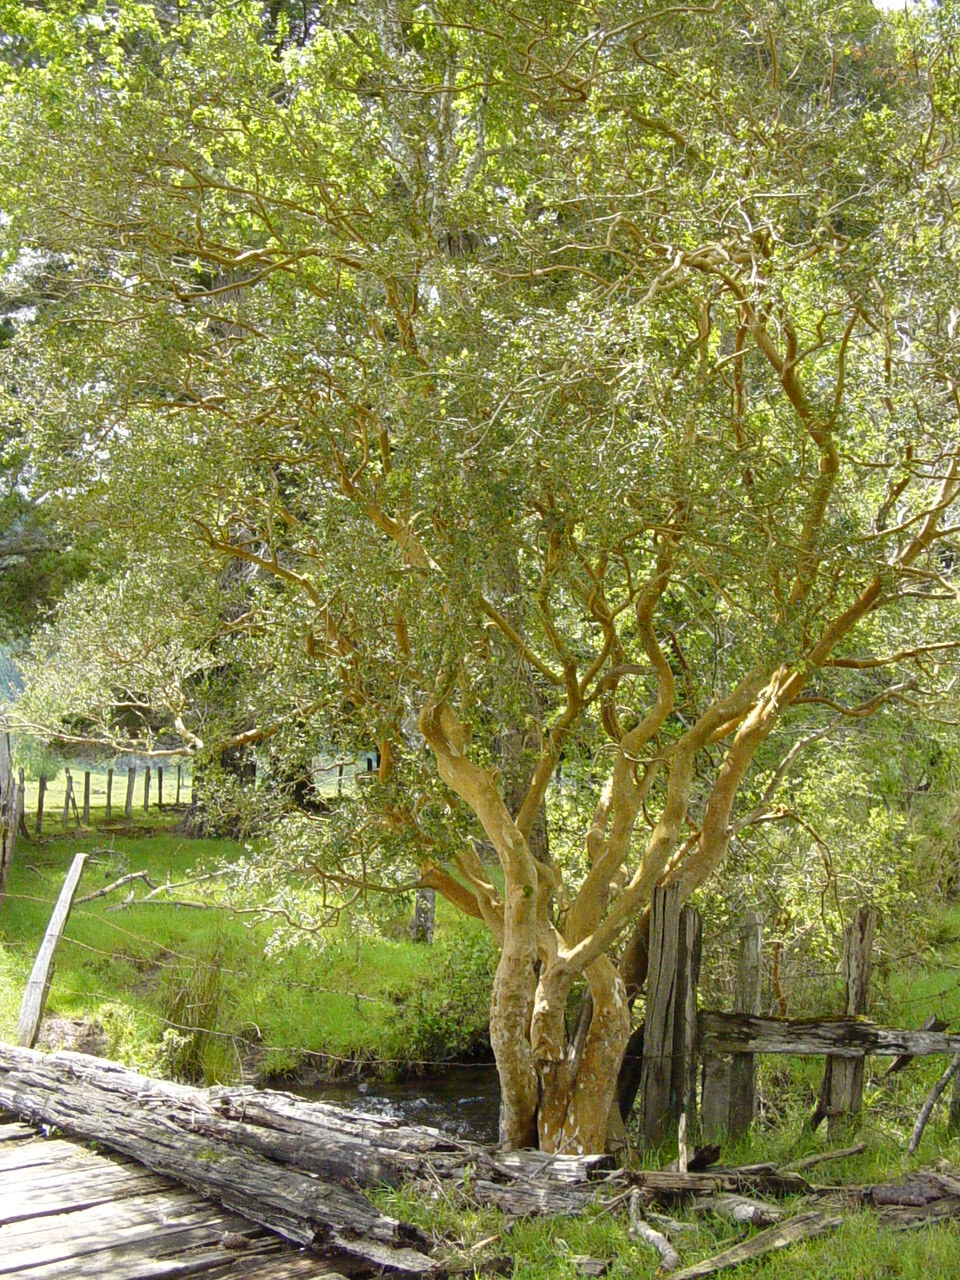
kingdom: Plantae
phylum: Tracheophyta
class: Magnoliopsida
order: Myrtales
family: Myrtaceae
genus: Luma
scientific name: Luma apiculata
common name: Chilean myrtle
